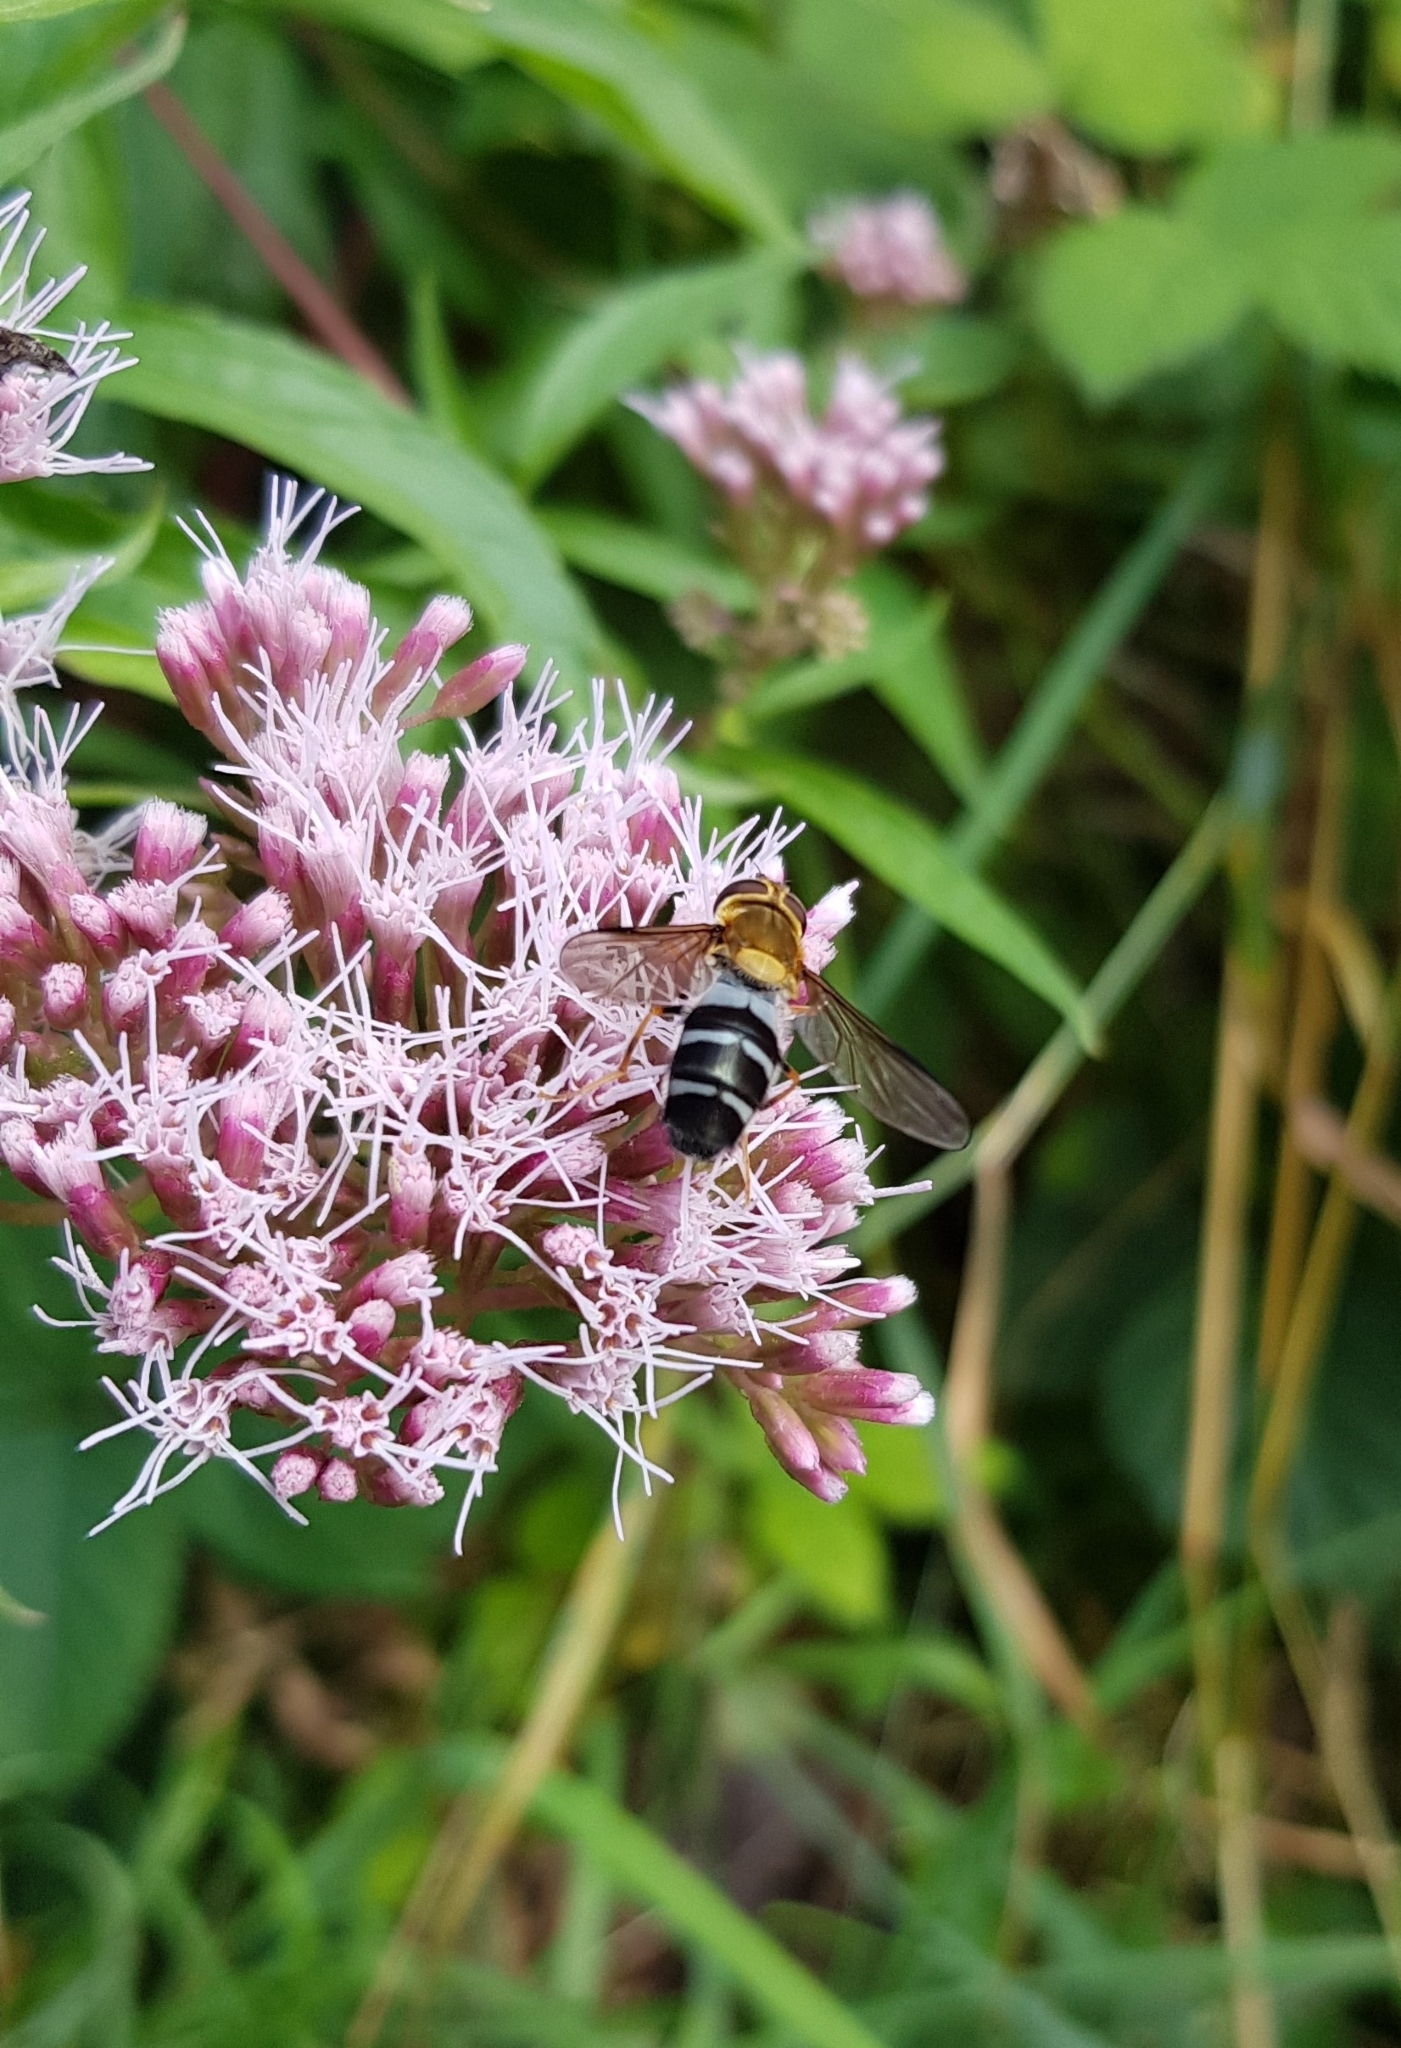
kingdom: Animalia
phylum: Arthropoda
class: Insecta
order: Diptera
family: Syrphidae
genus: Leucozona
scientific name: Leucozona glaucia
